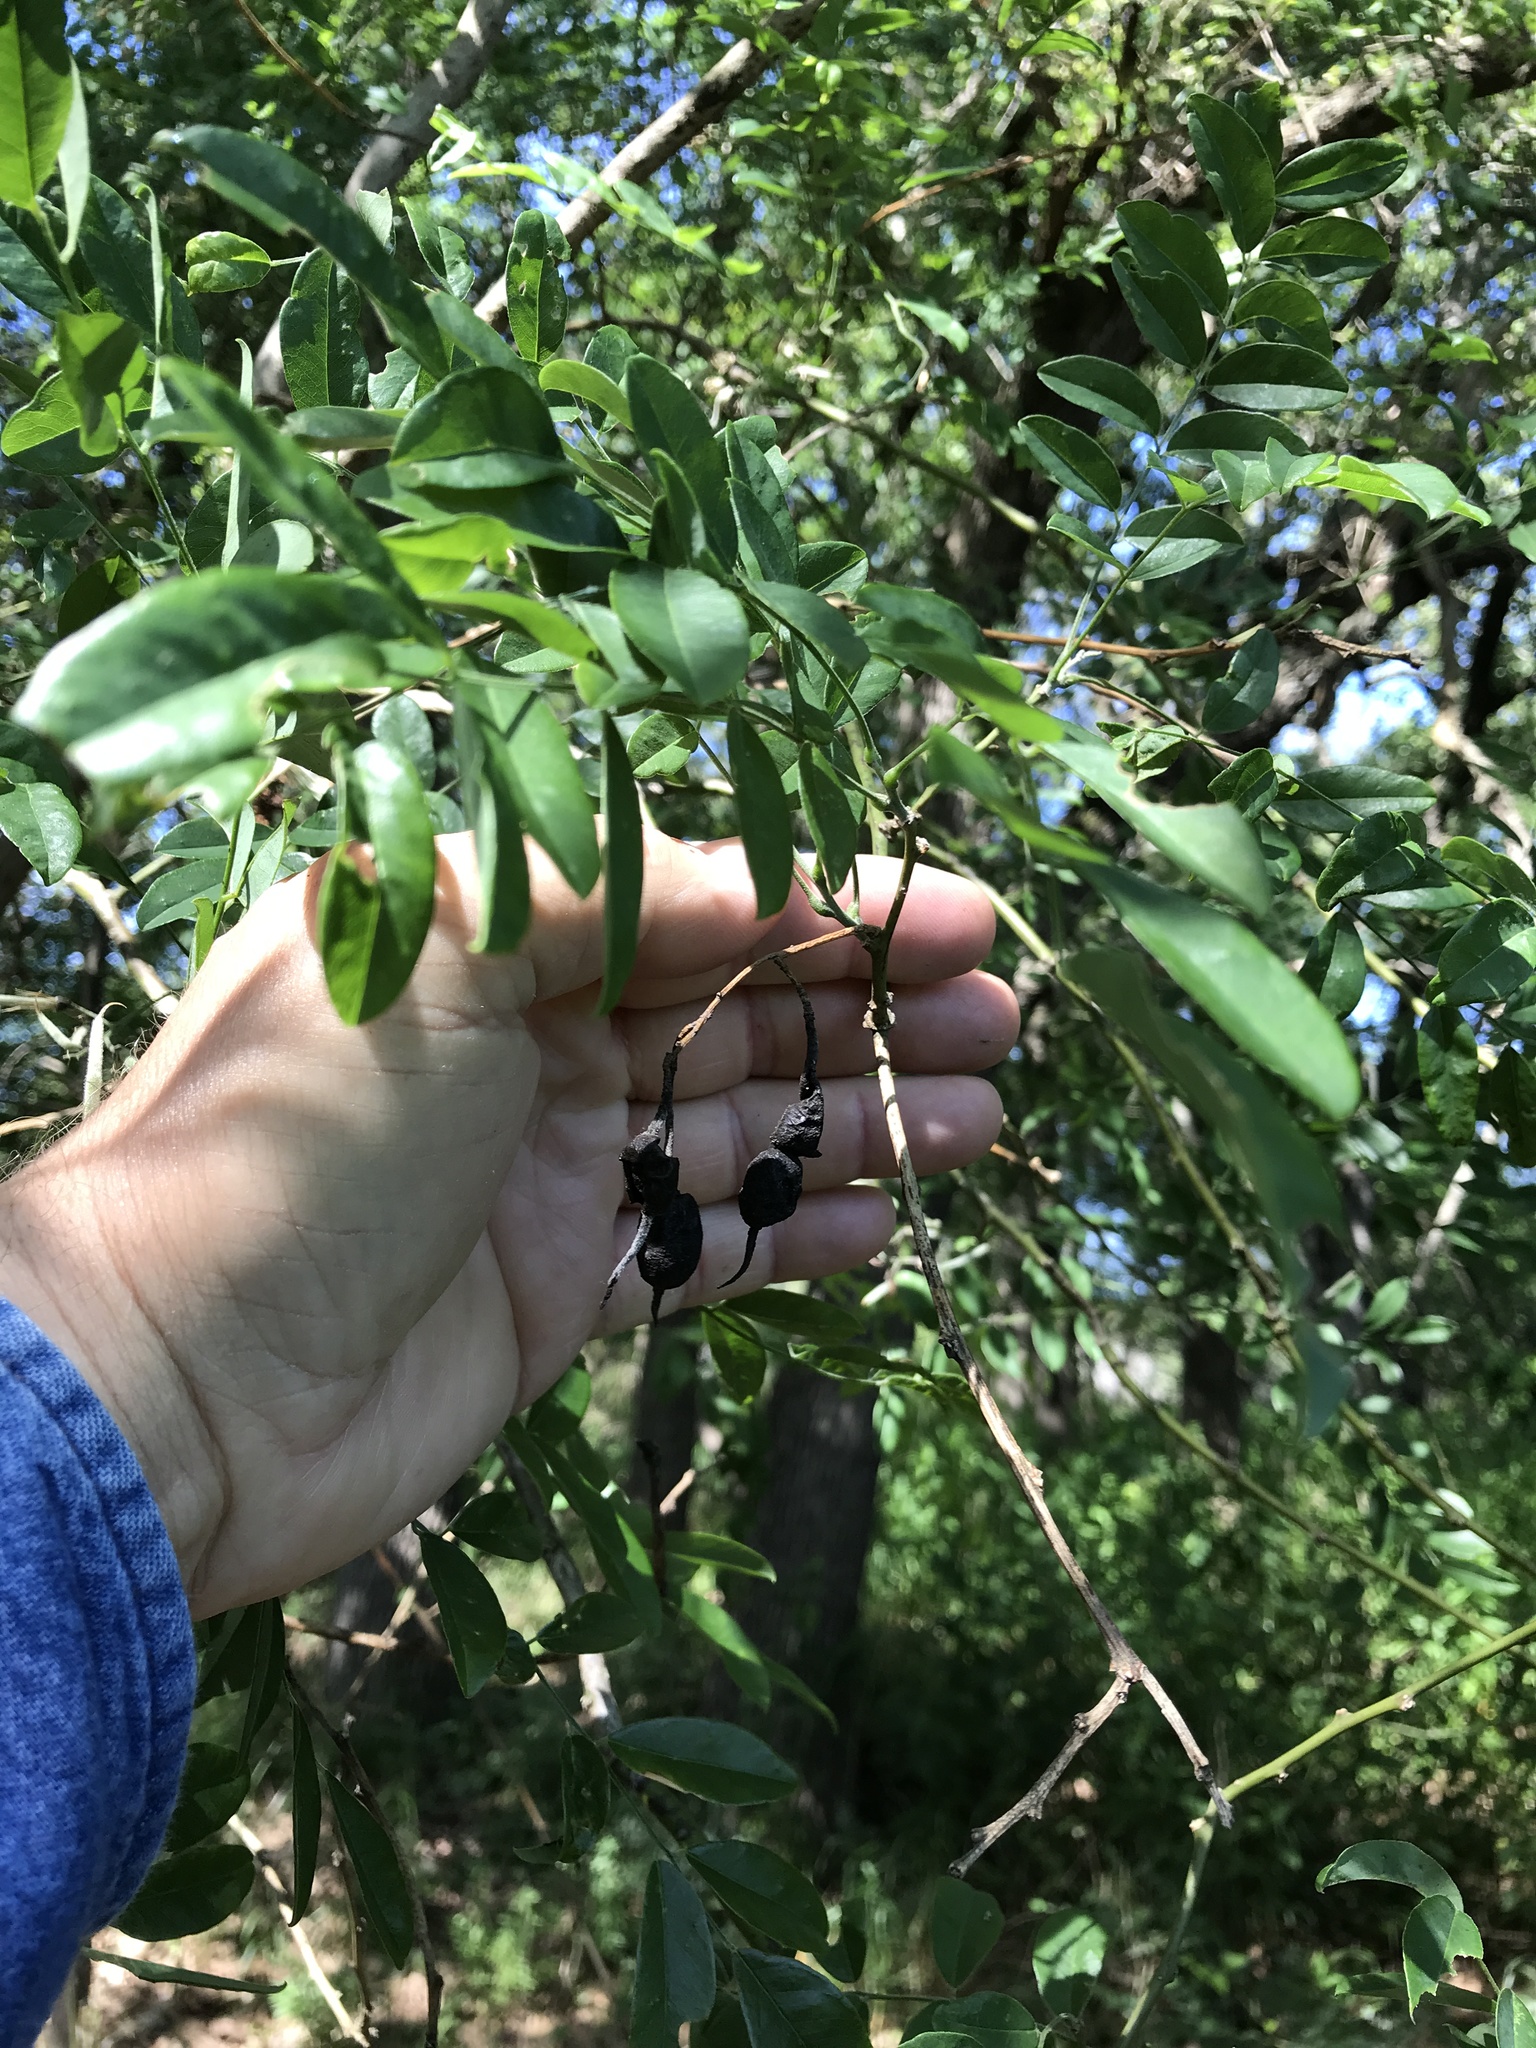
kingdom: Plantae
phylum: Tracheophyta
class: Magnoliopsida
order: Fabales
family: Fabaceae
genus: Styphnolobium
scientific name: Styphnolobium affine
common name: Texas sophora
